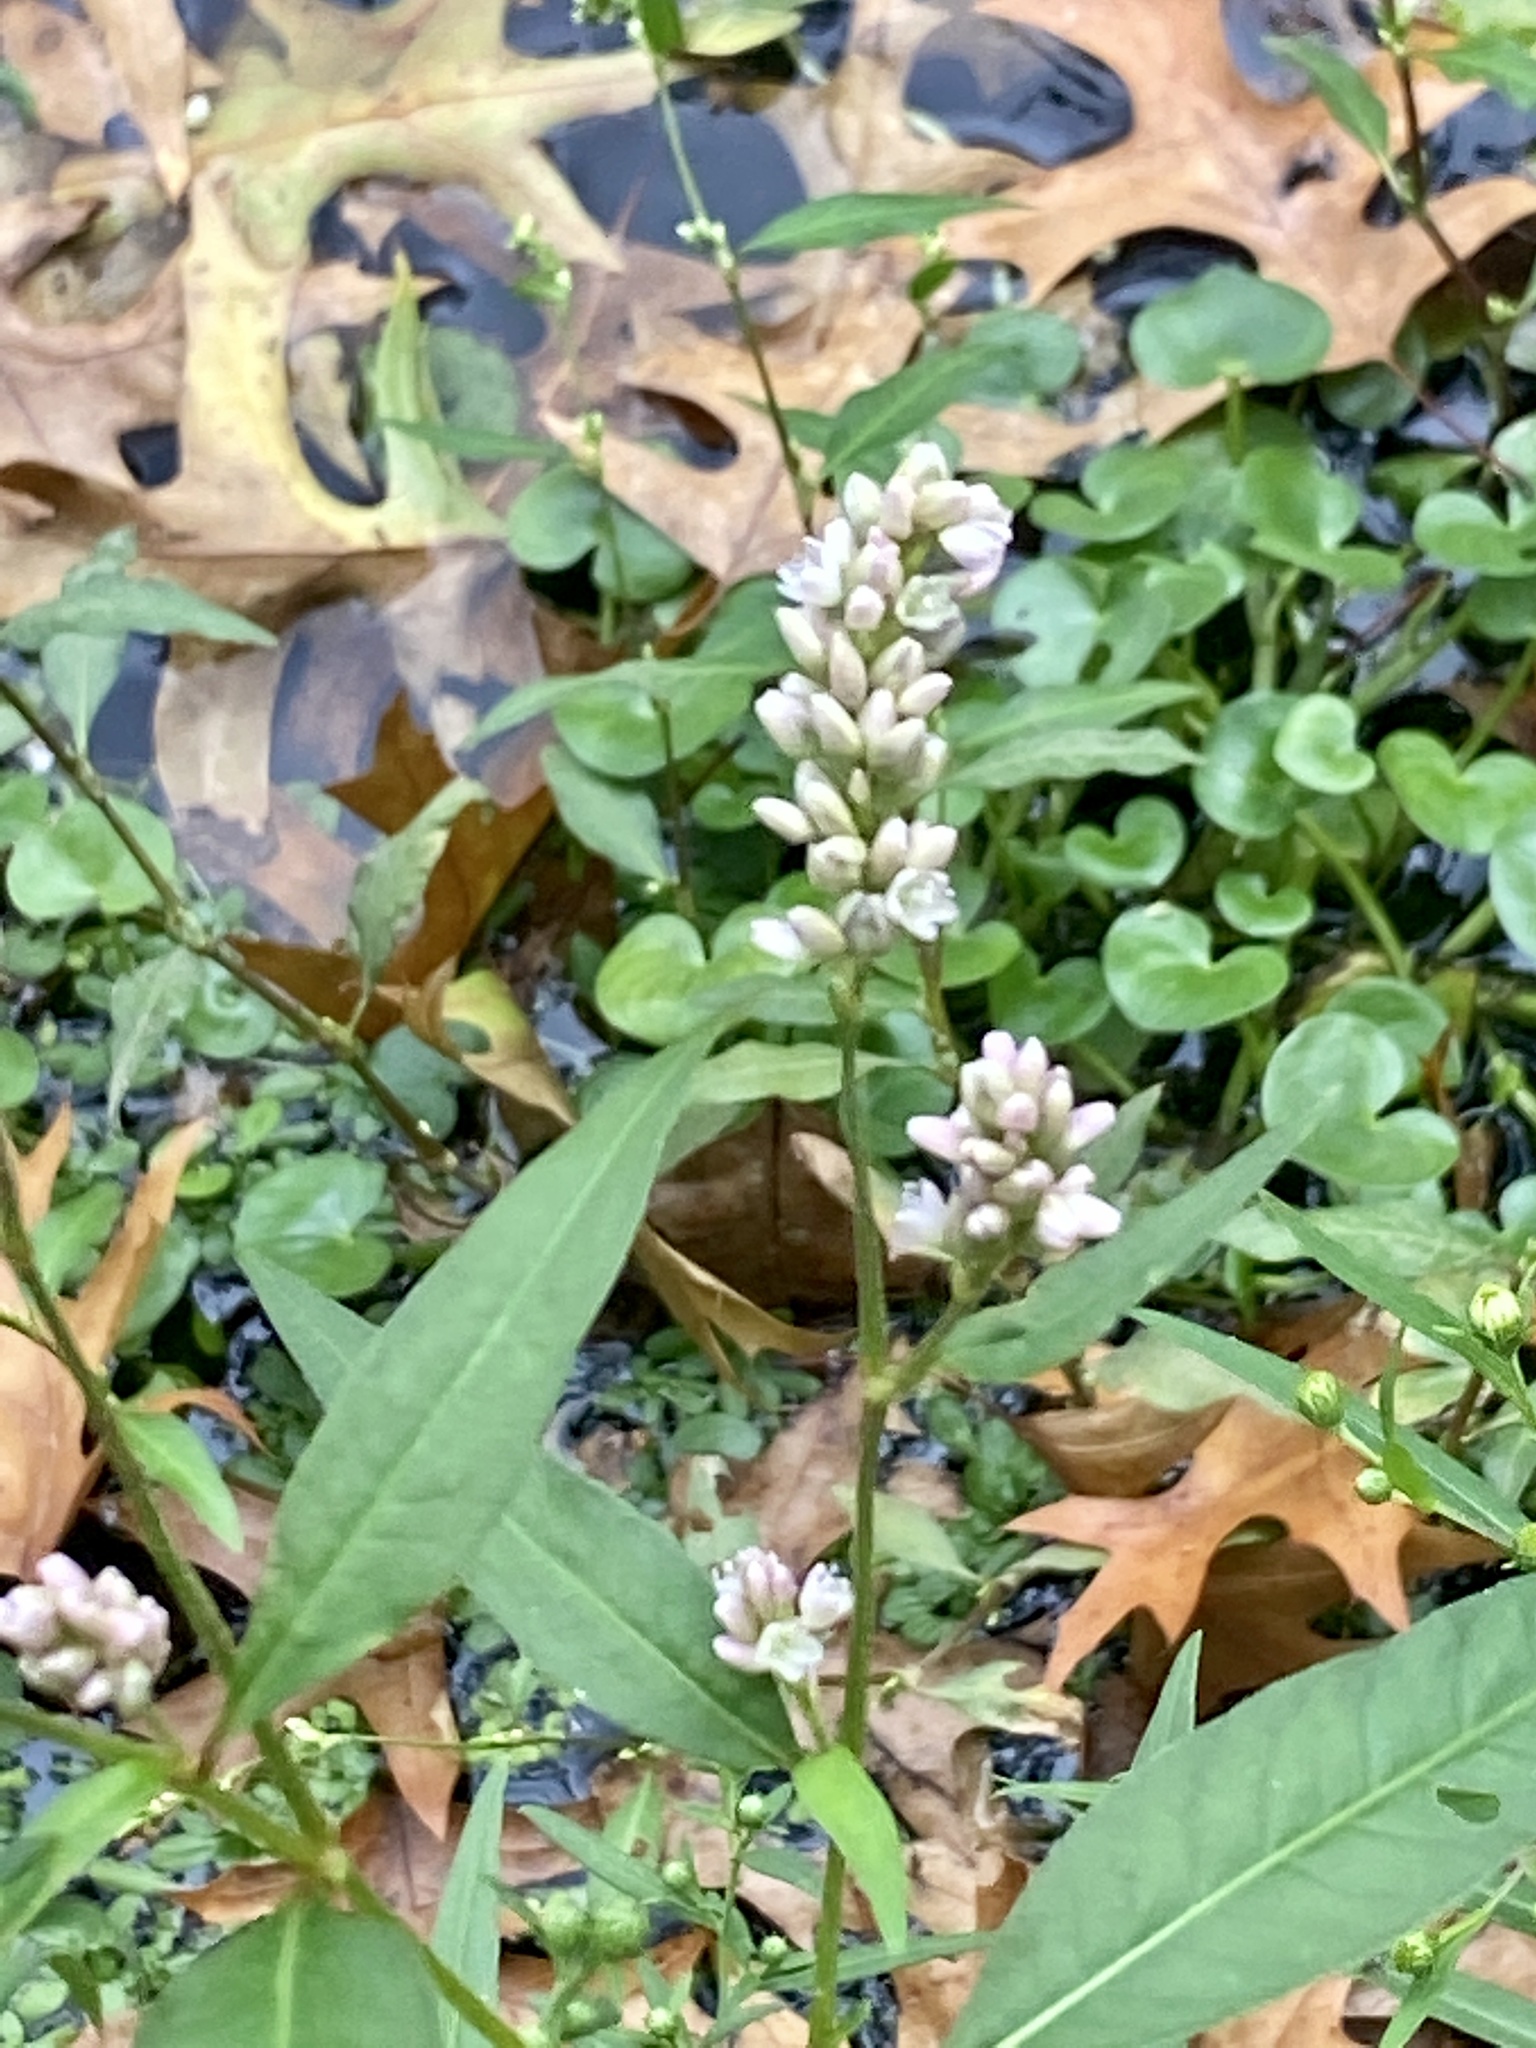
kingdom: Plantae
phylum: Tracheophyta
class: Magnoliopsida
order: Caryophyllales
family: Polygonaceae
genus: Persicaria
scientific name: Persicaria pensylvanica
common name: Pinkweed
